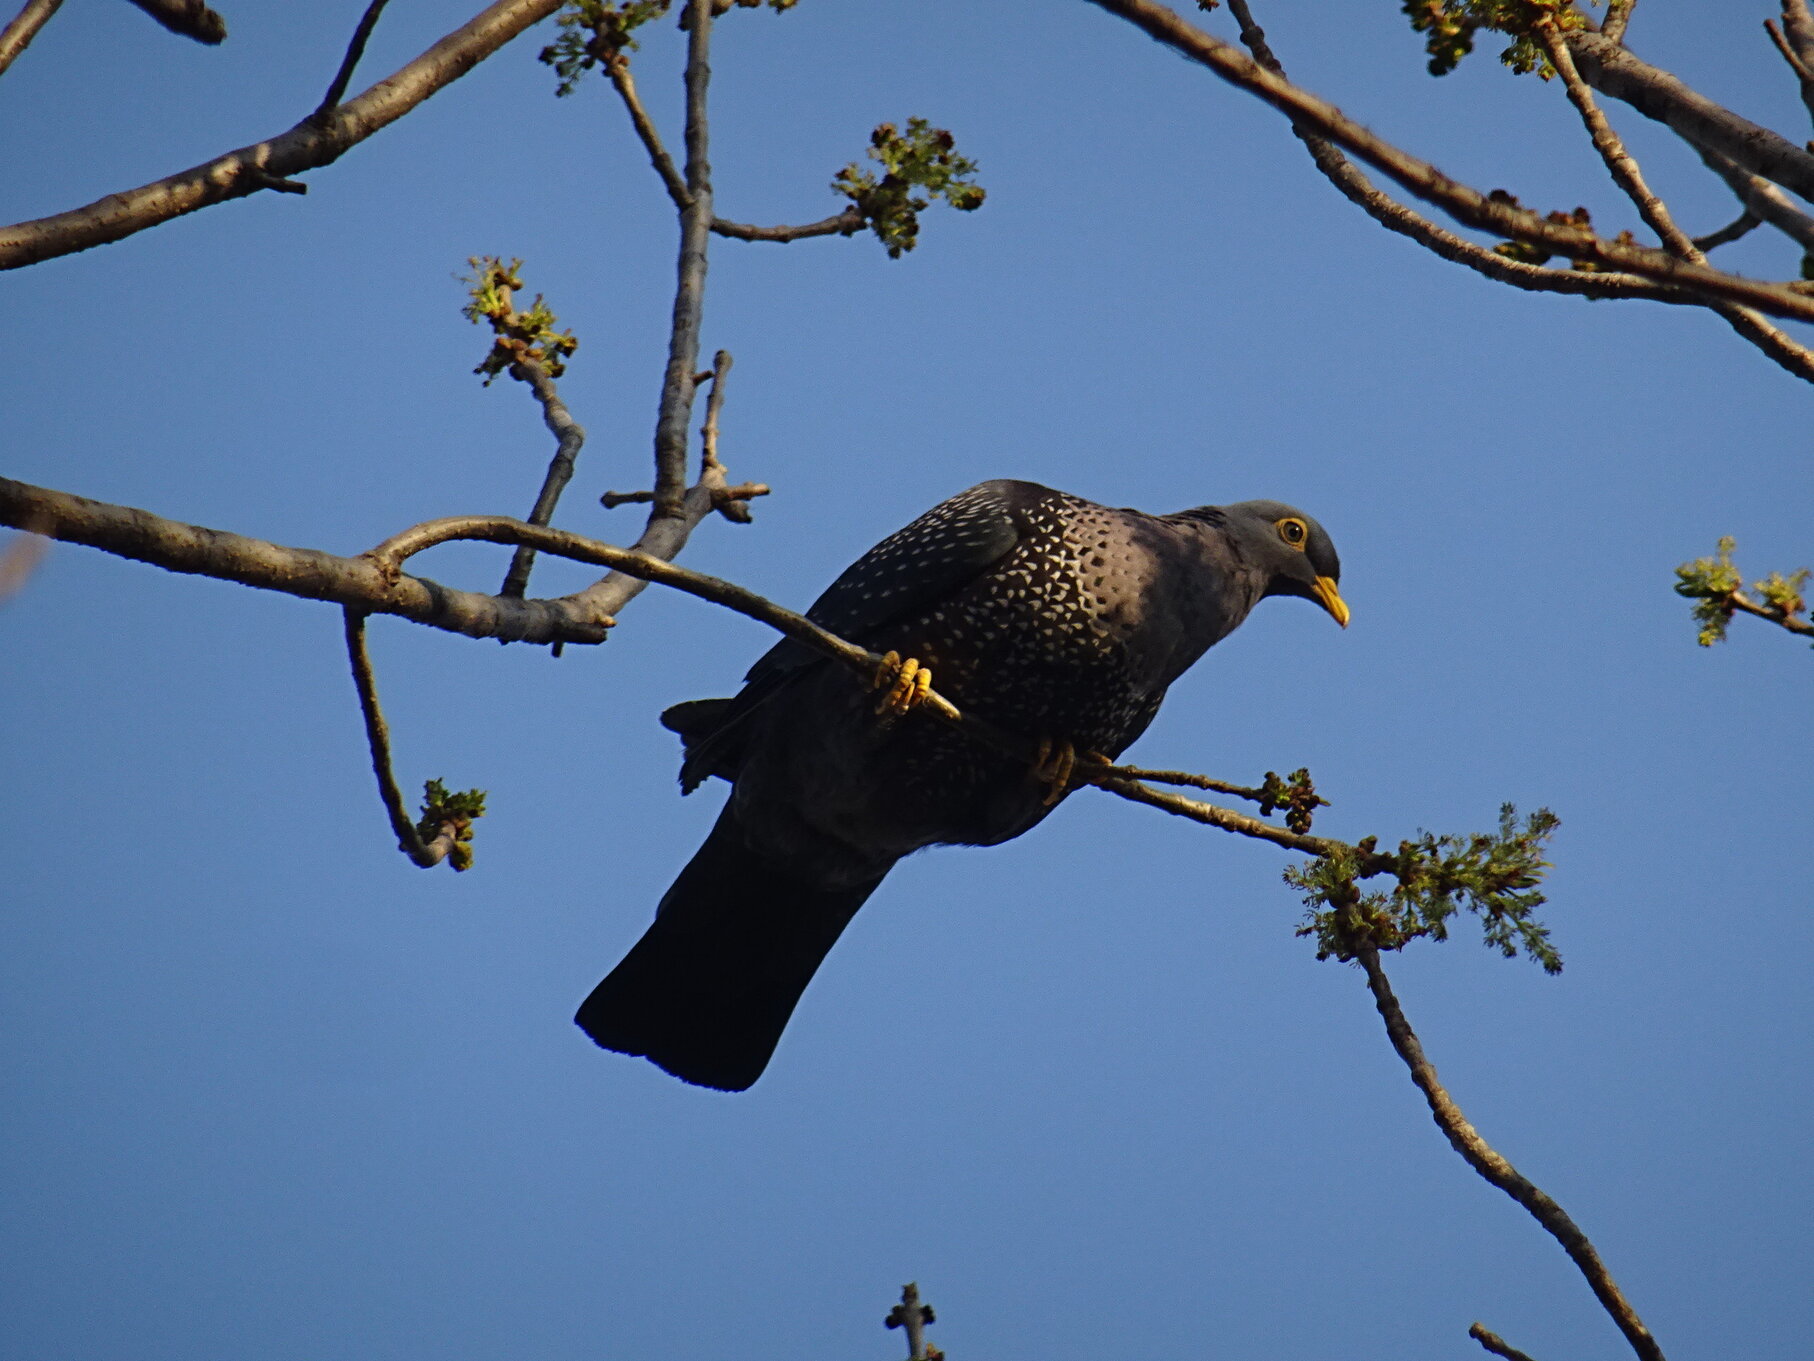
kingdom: Animalia
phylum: Chordata
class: Aves
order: Columbiformes
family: Columbidae
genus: Columba
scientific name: Columba arquatrix
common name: African olive pigeon
